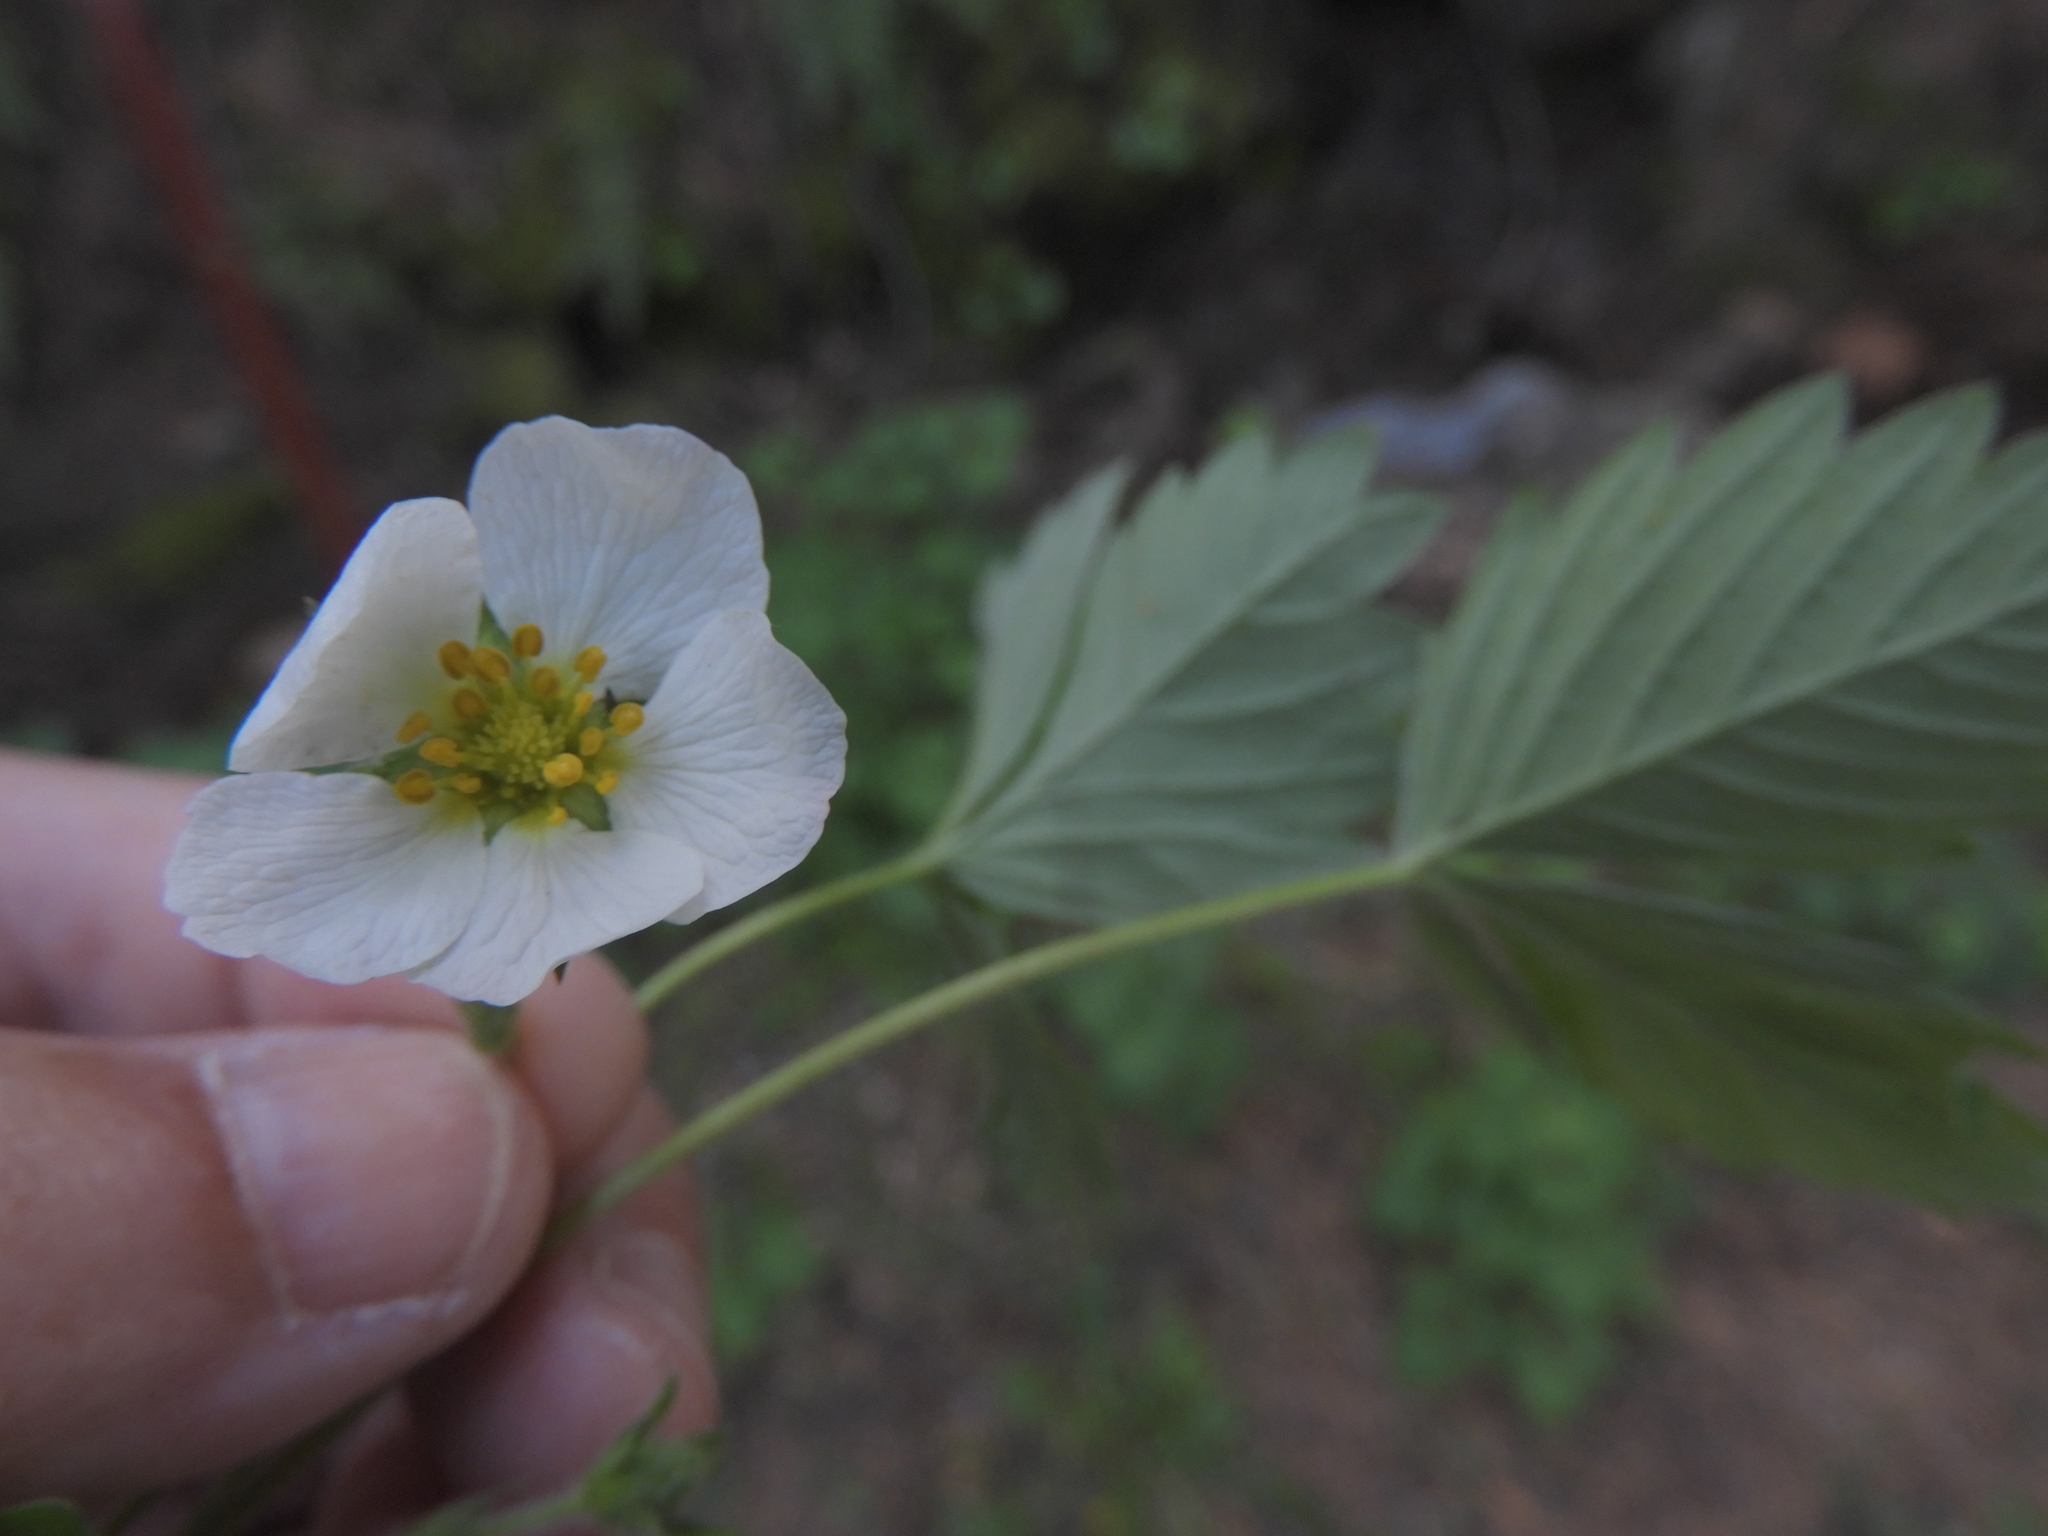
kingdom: Plantae
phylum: Tracheophyta
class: Magnoliopsida
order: Rosales
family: Rosaceae
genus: Fragaria
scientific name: Fragaria vesca
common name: Wild strawberry
